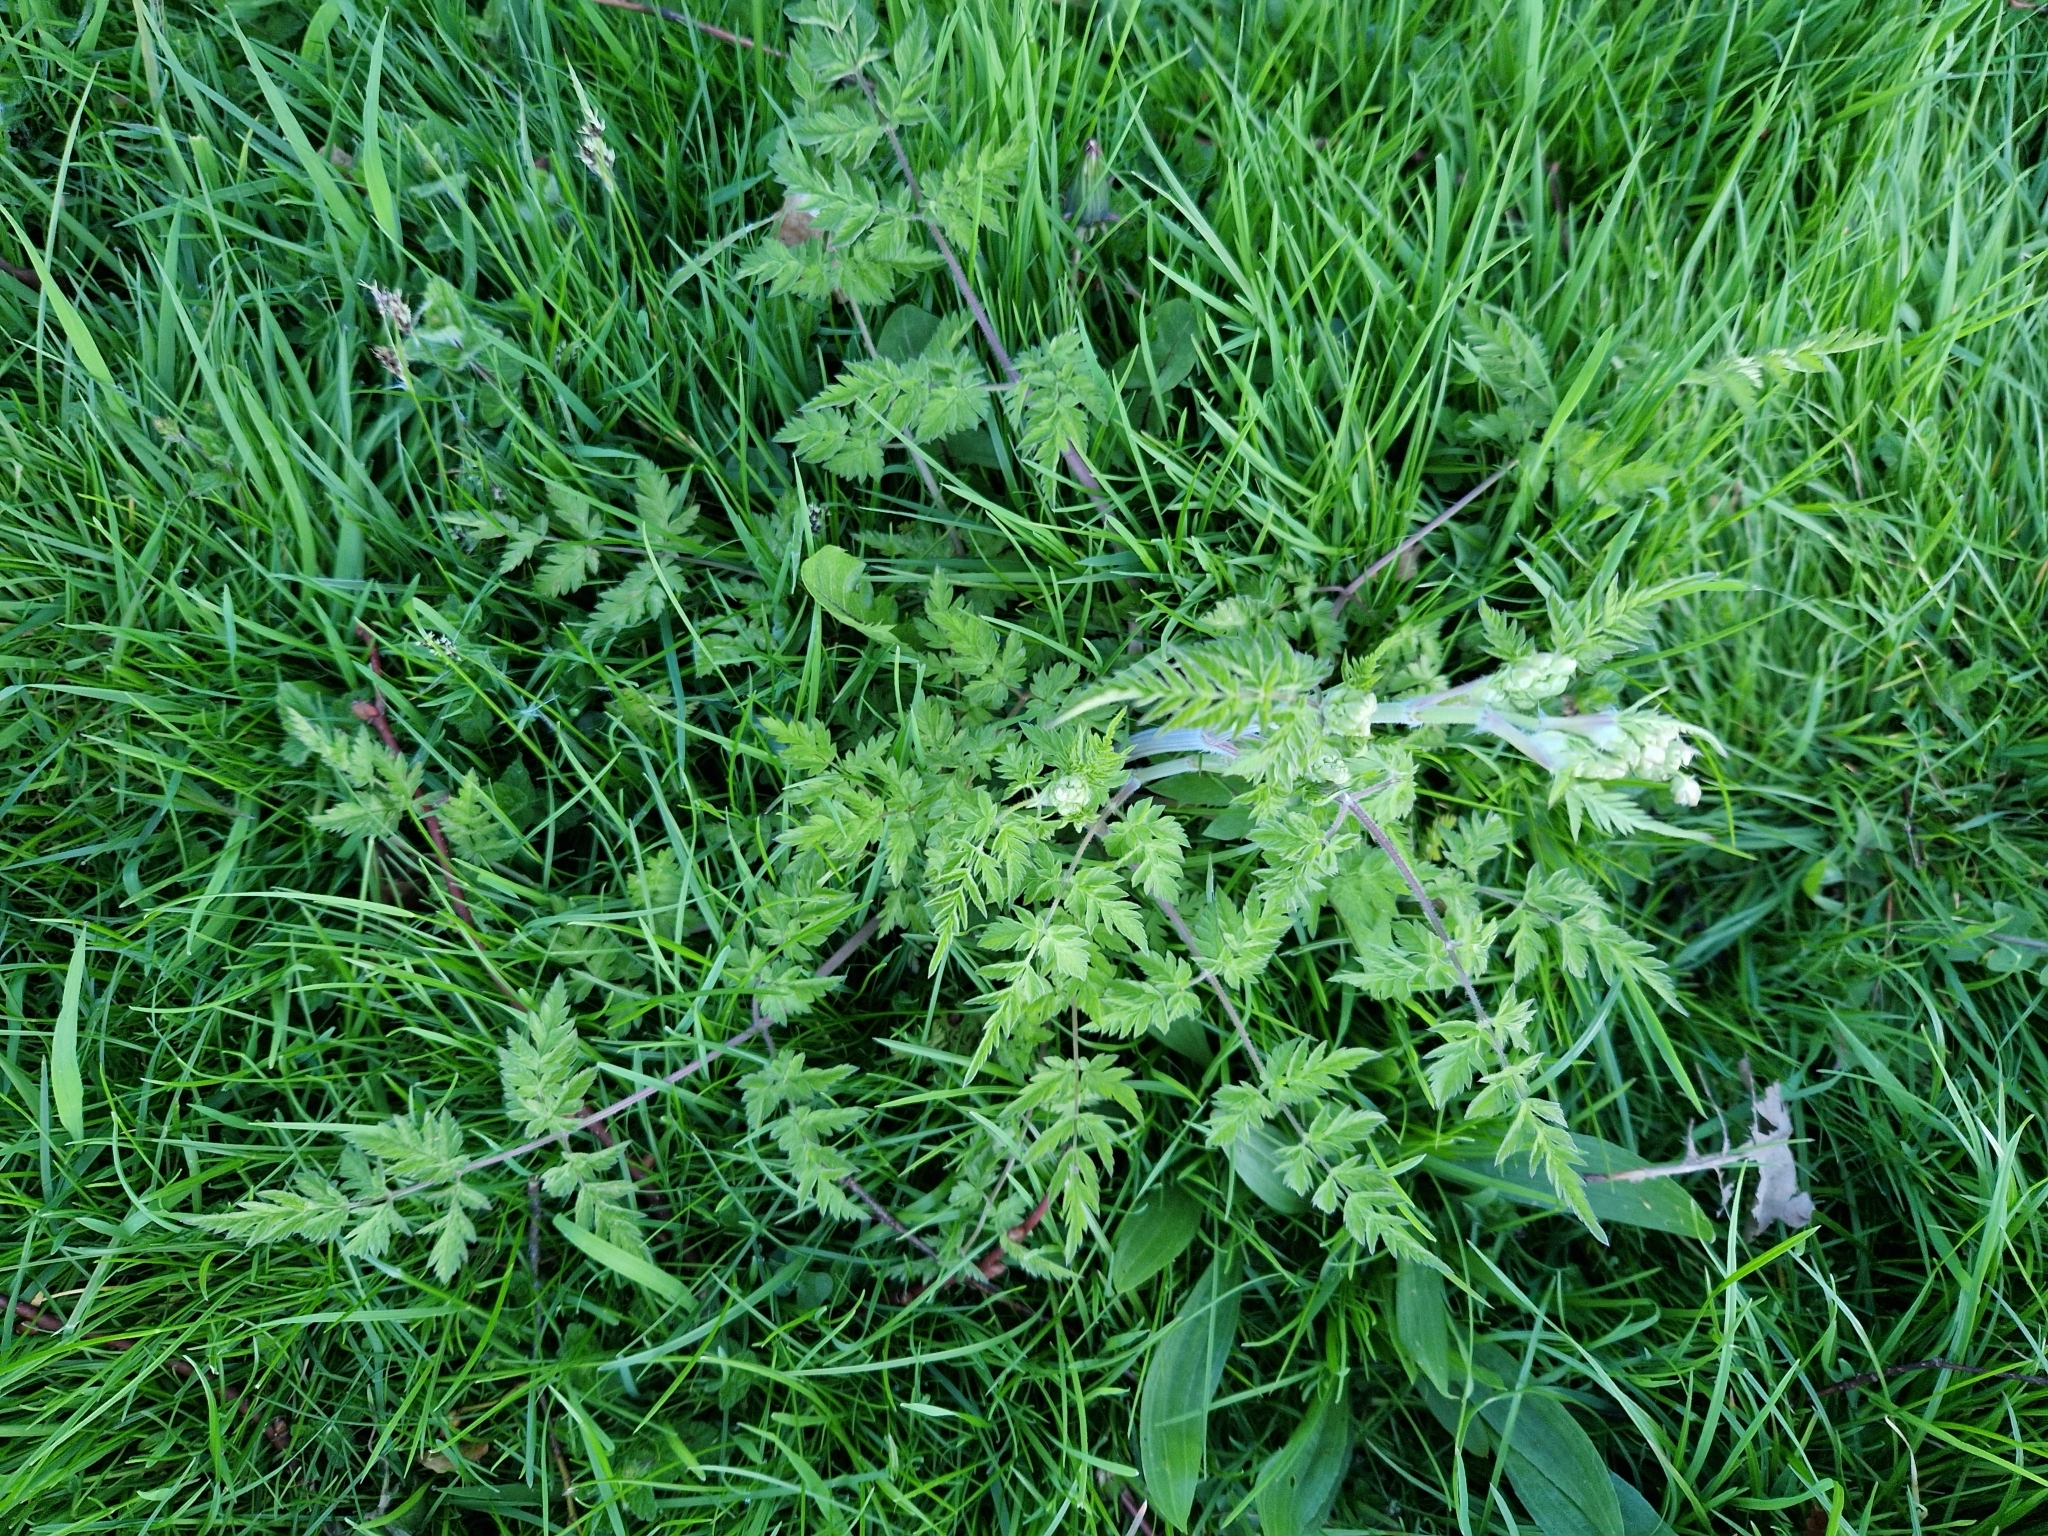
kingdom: Plantae
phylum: Tracheophyta
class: Magnoliopsida
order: Apiales
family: Apiaceae
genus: Anthriscus
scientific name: Anthriscus sylvestris
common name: Cow parsley
